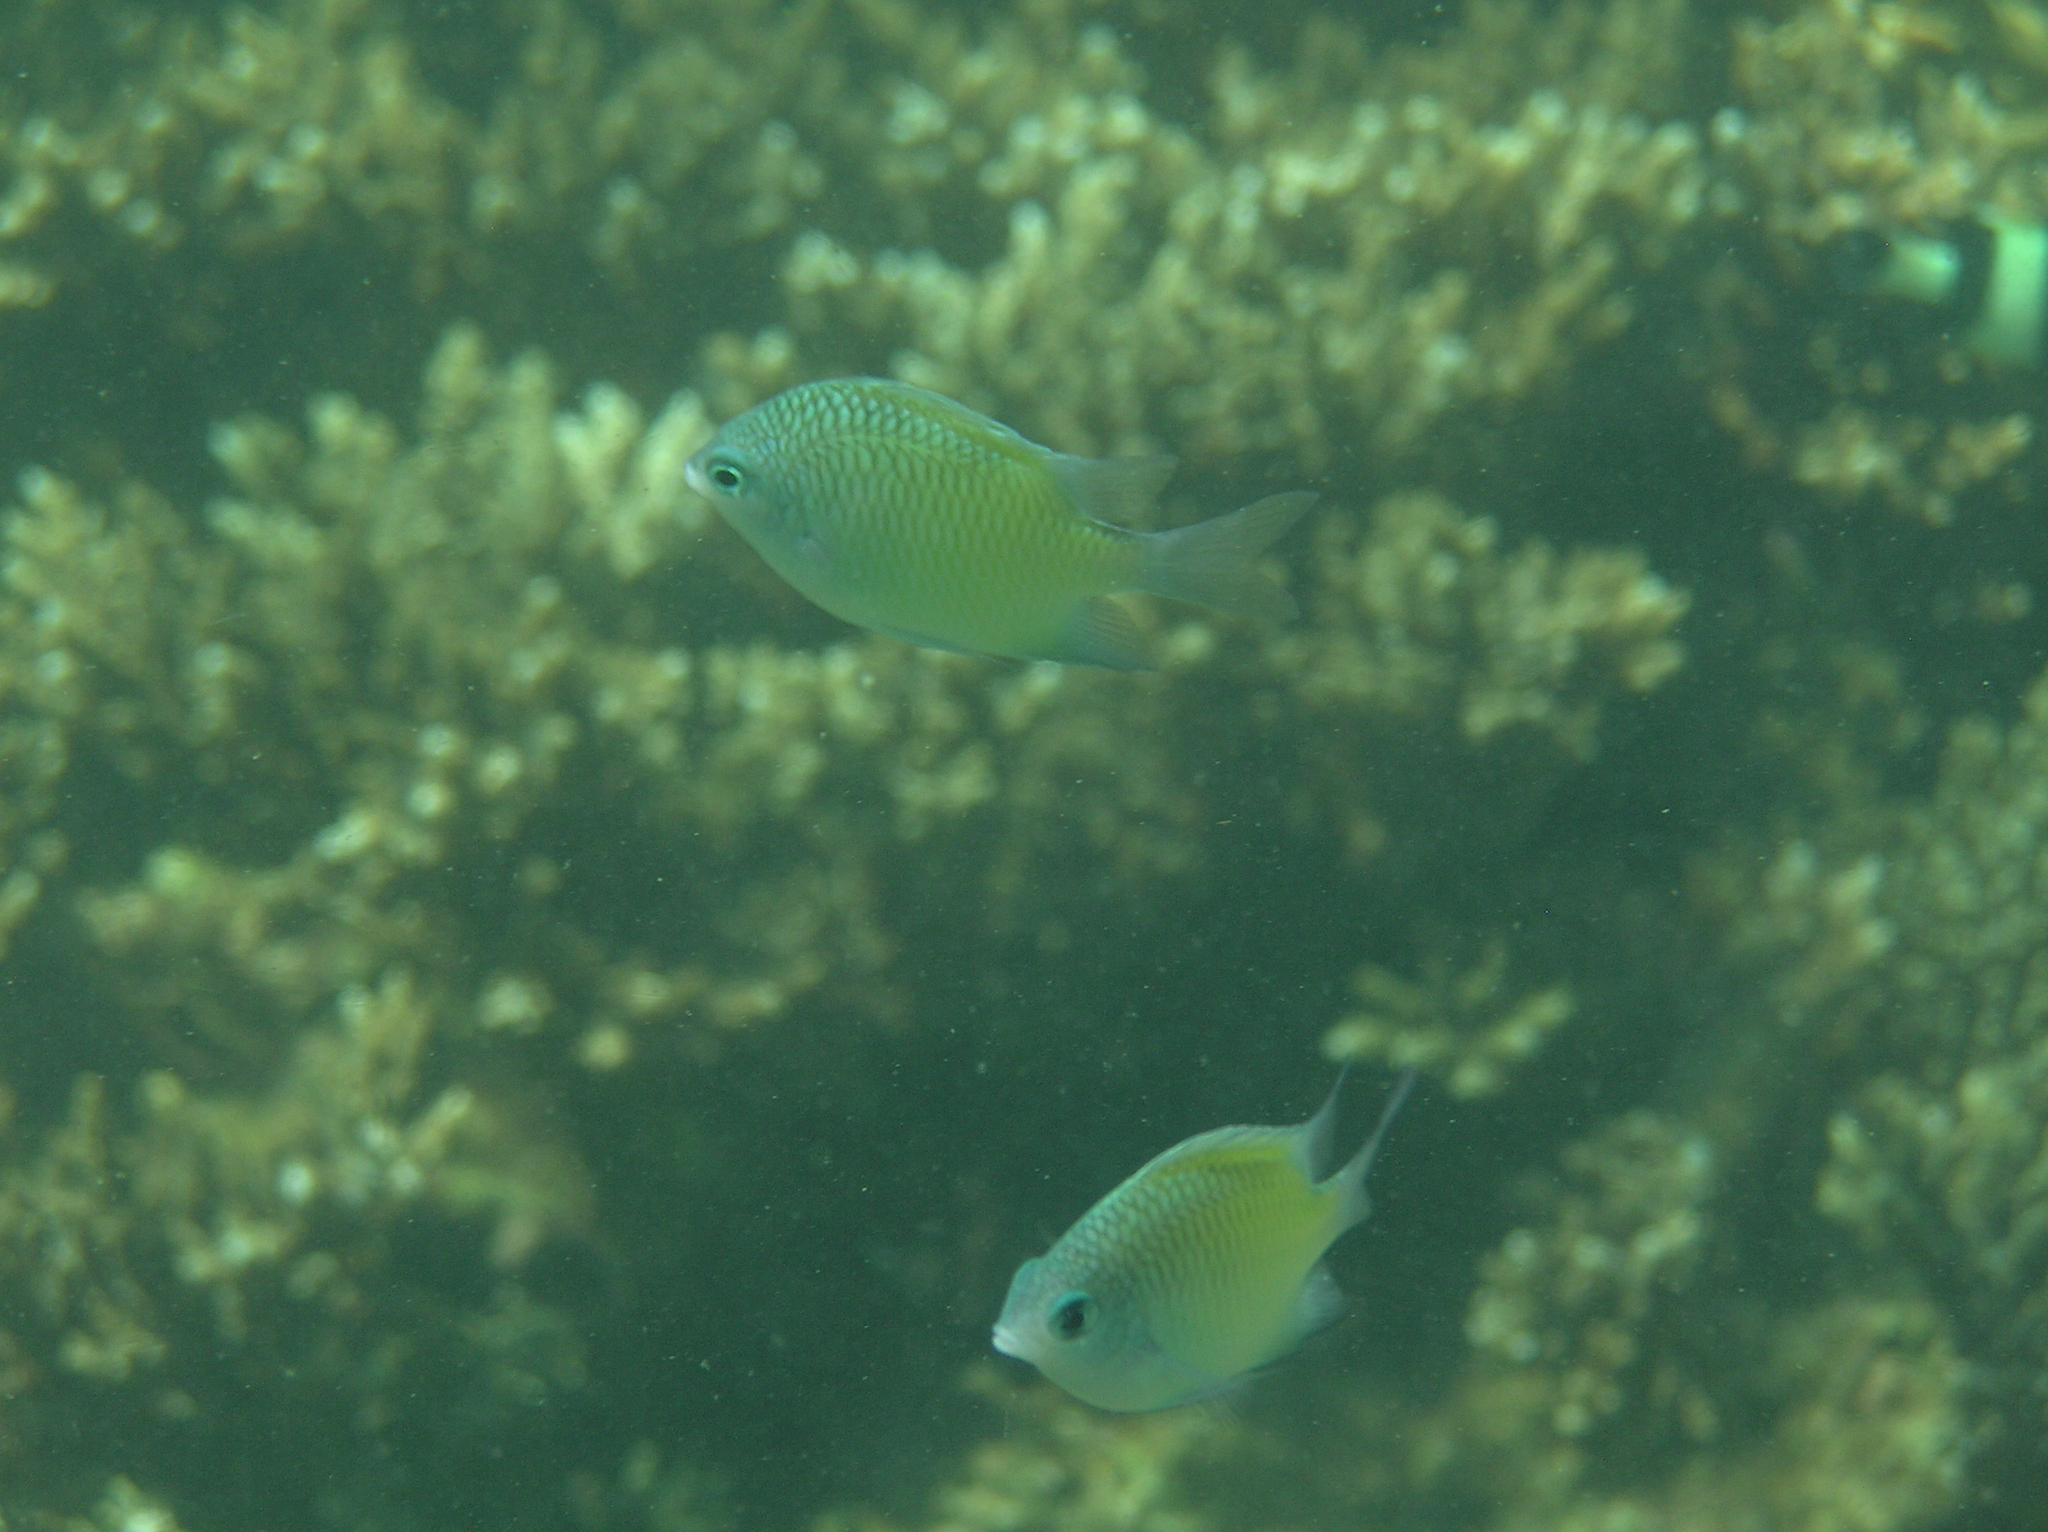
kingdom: Animalia
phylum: Chordata
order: Perciformes
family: Pomacentridae
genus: Amblyglyphidodon
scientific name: Amblyglyphidodon batunaorum
